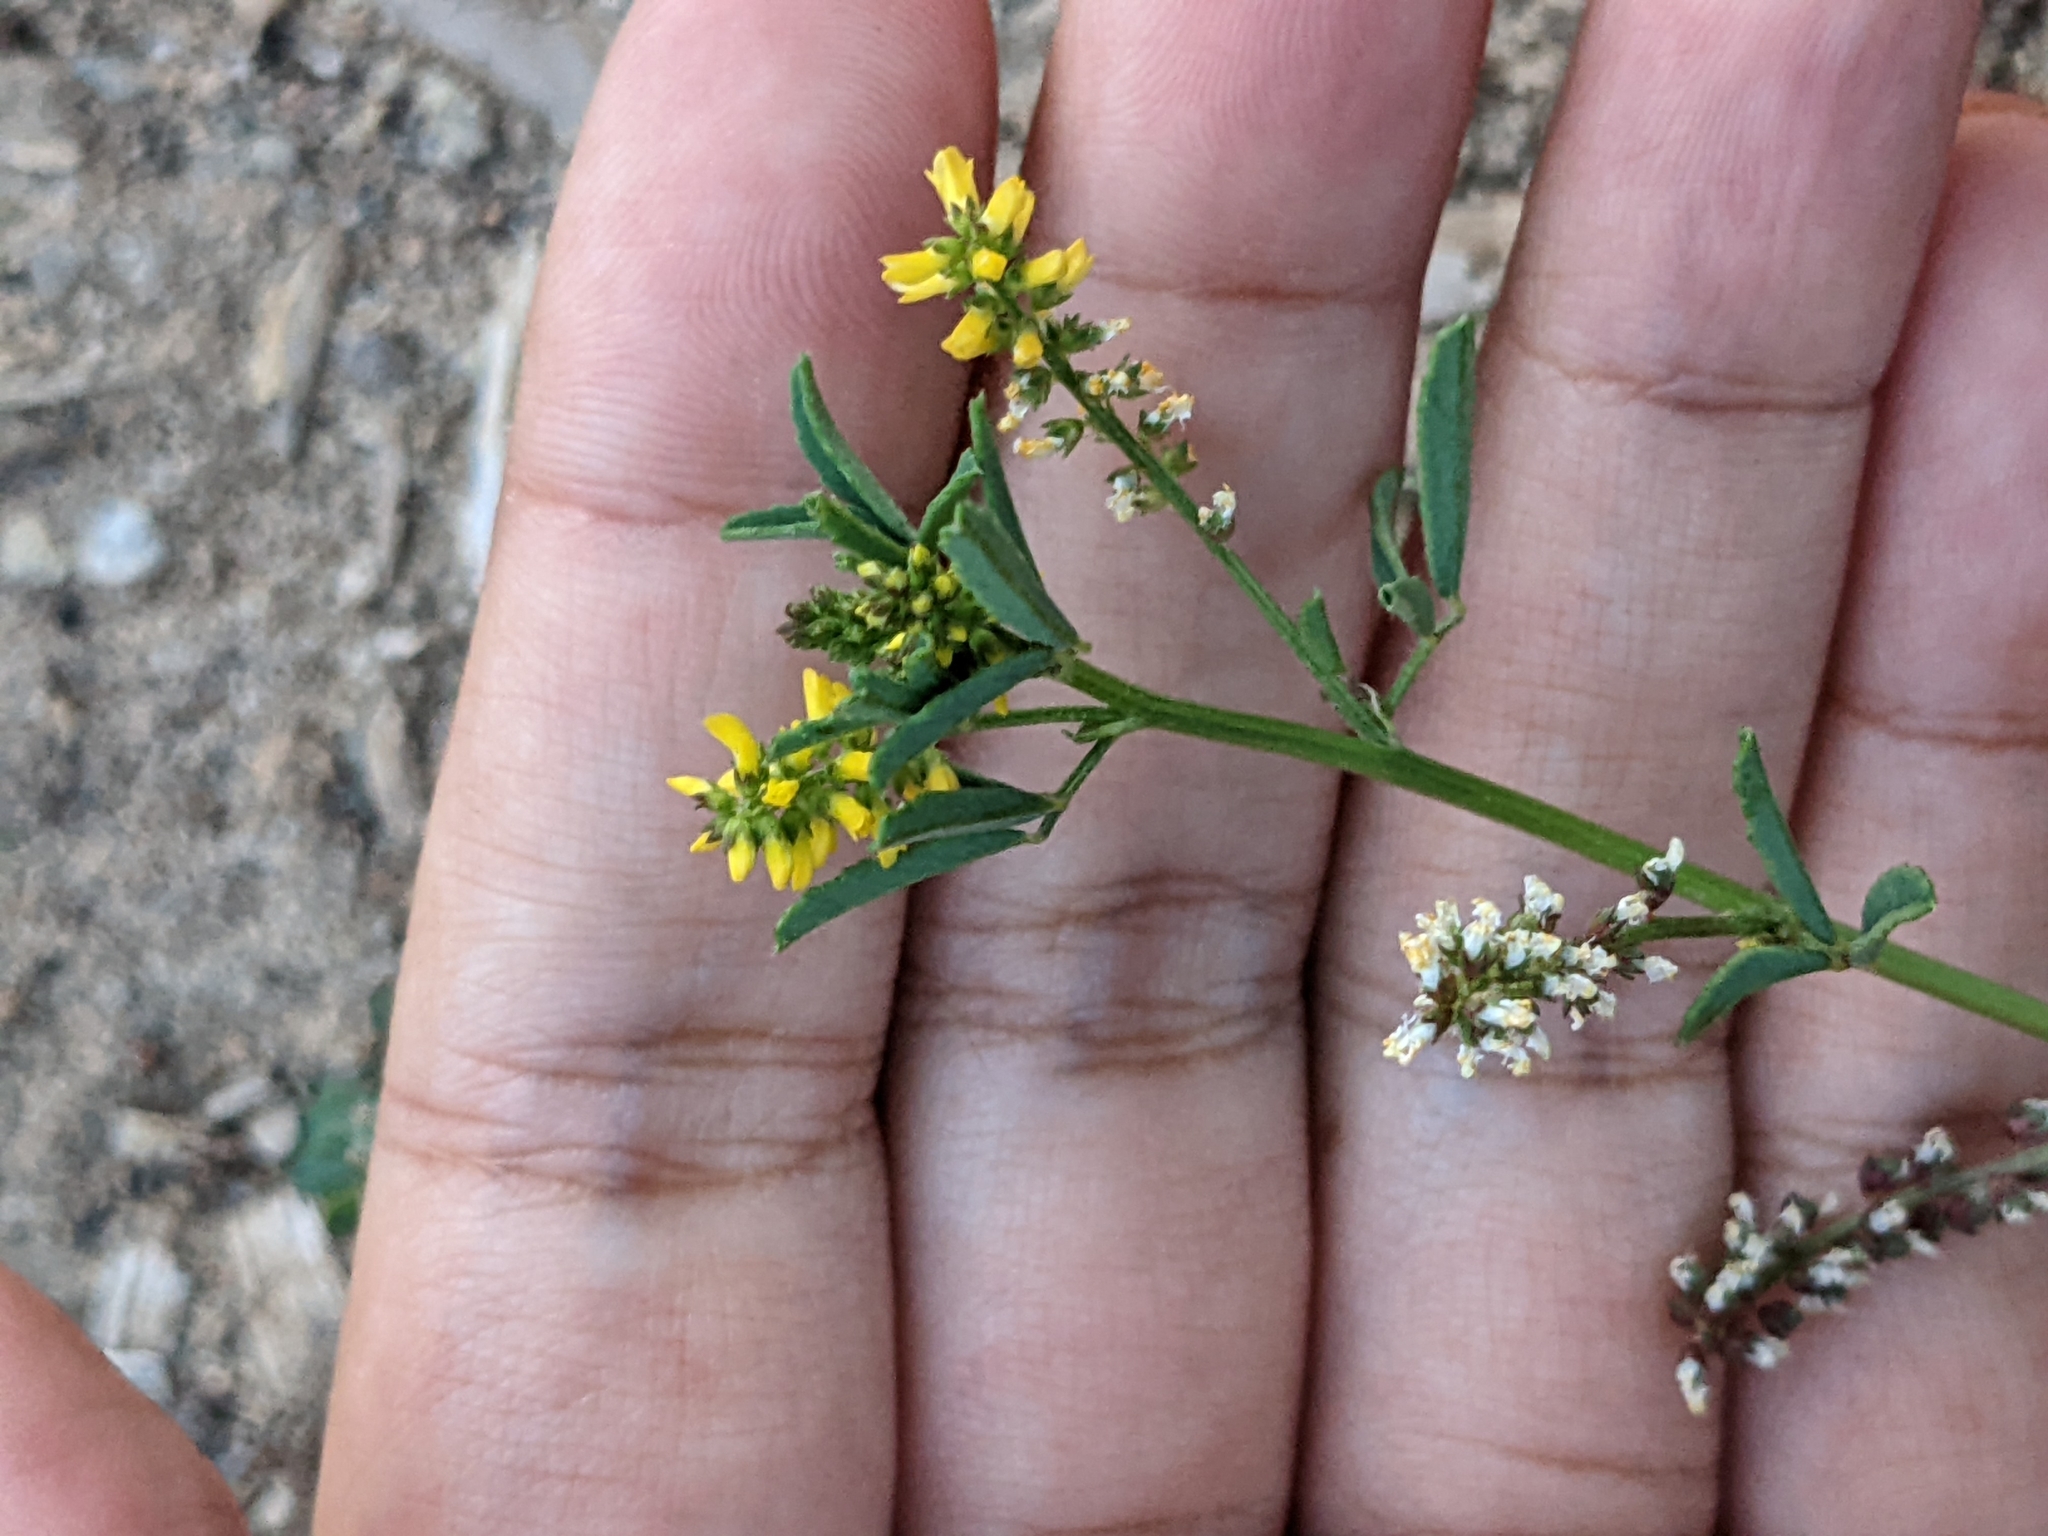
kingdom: Plantae
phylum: Tracheophyta
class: Magnoliopsida
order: Fabales
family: Fabaceae
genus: Melilotus
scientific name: Melilotus indicus
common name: Small melilot
